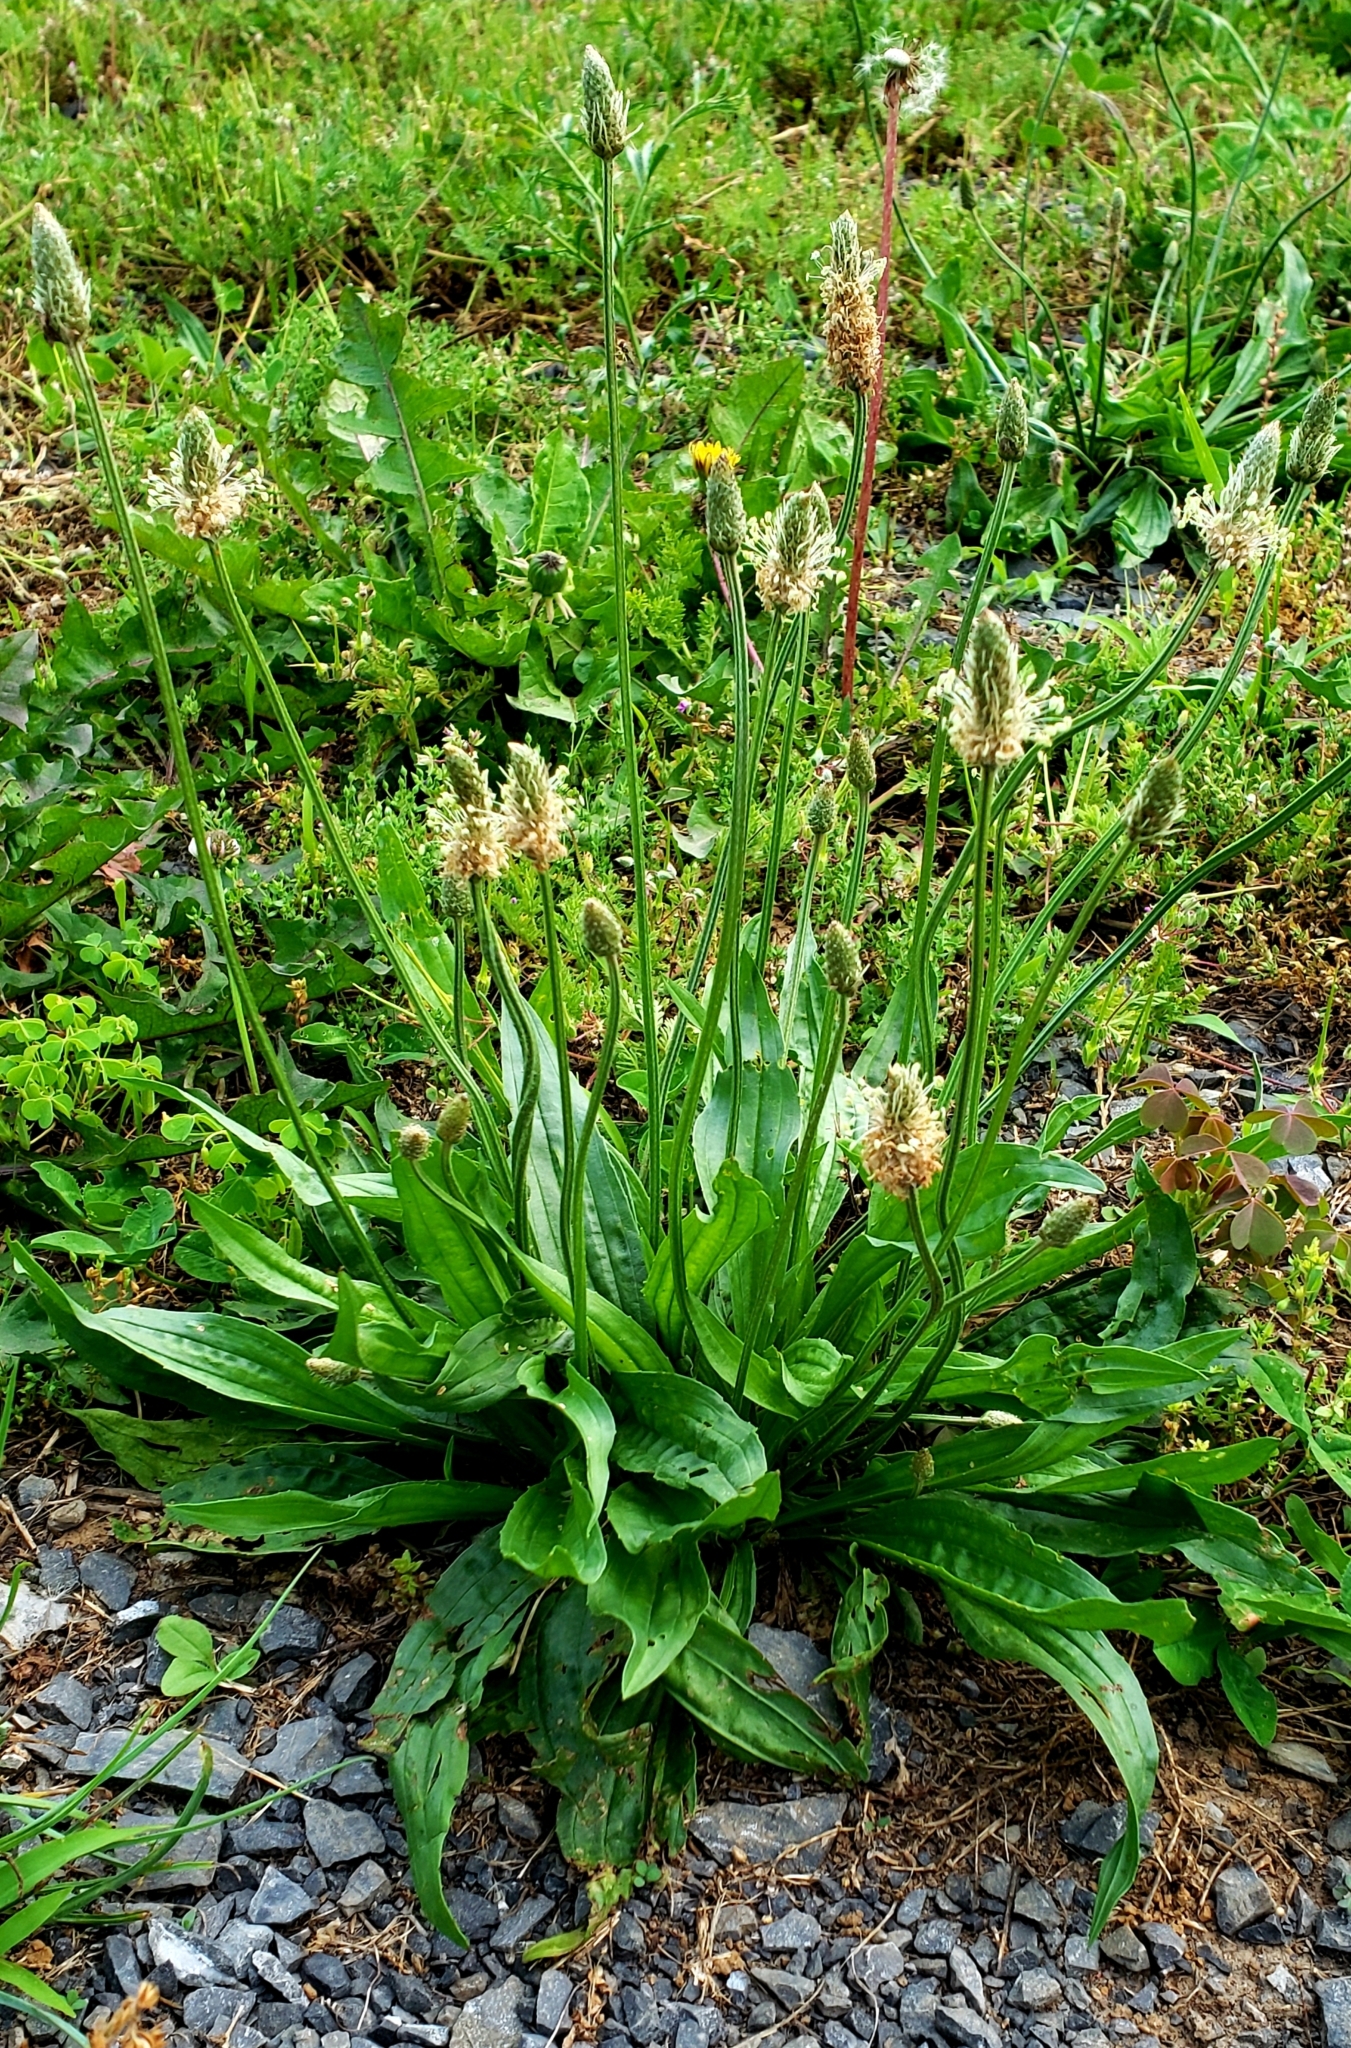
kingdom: Plantae
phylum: Tracheophyta
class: Magnoliopsida
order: Lamiales
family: Plantaginaceae
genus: Plantago
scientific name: Plantago lanceolata
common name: Ribwort plantain
